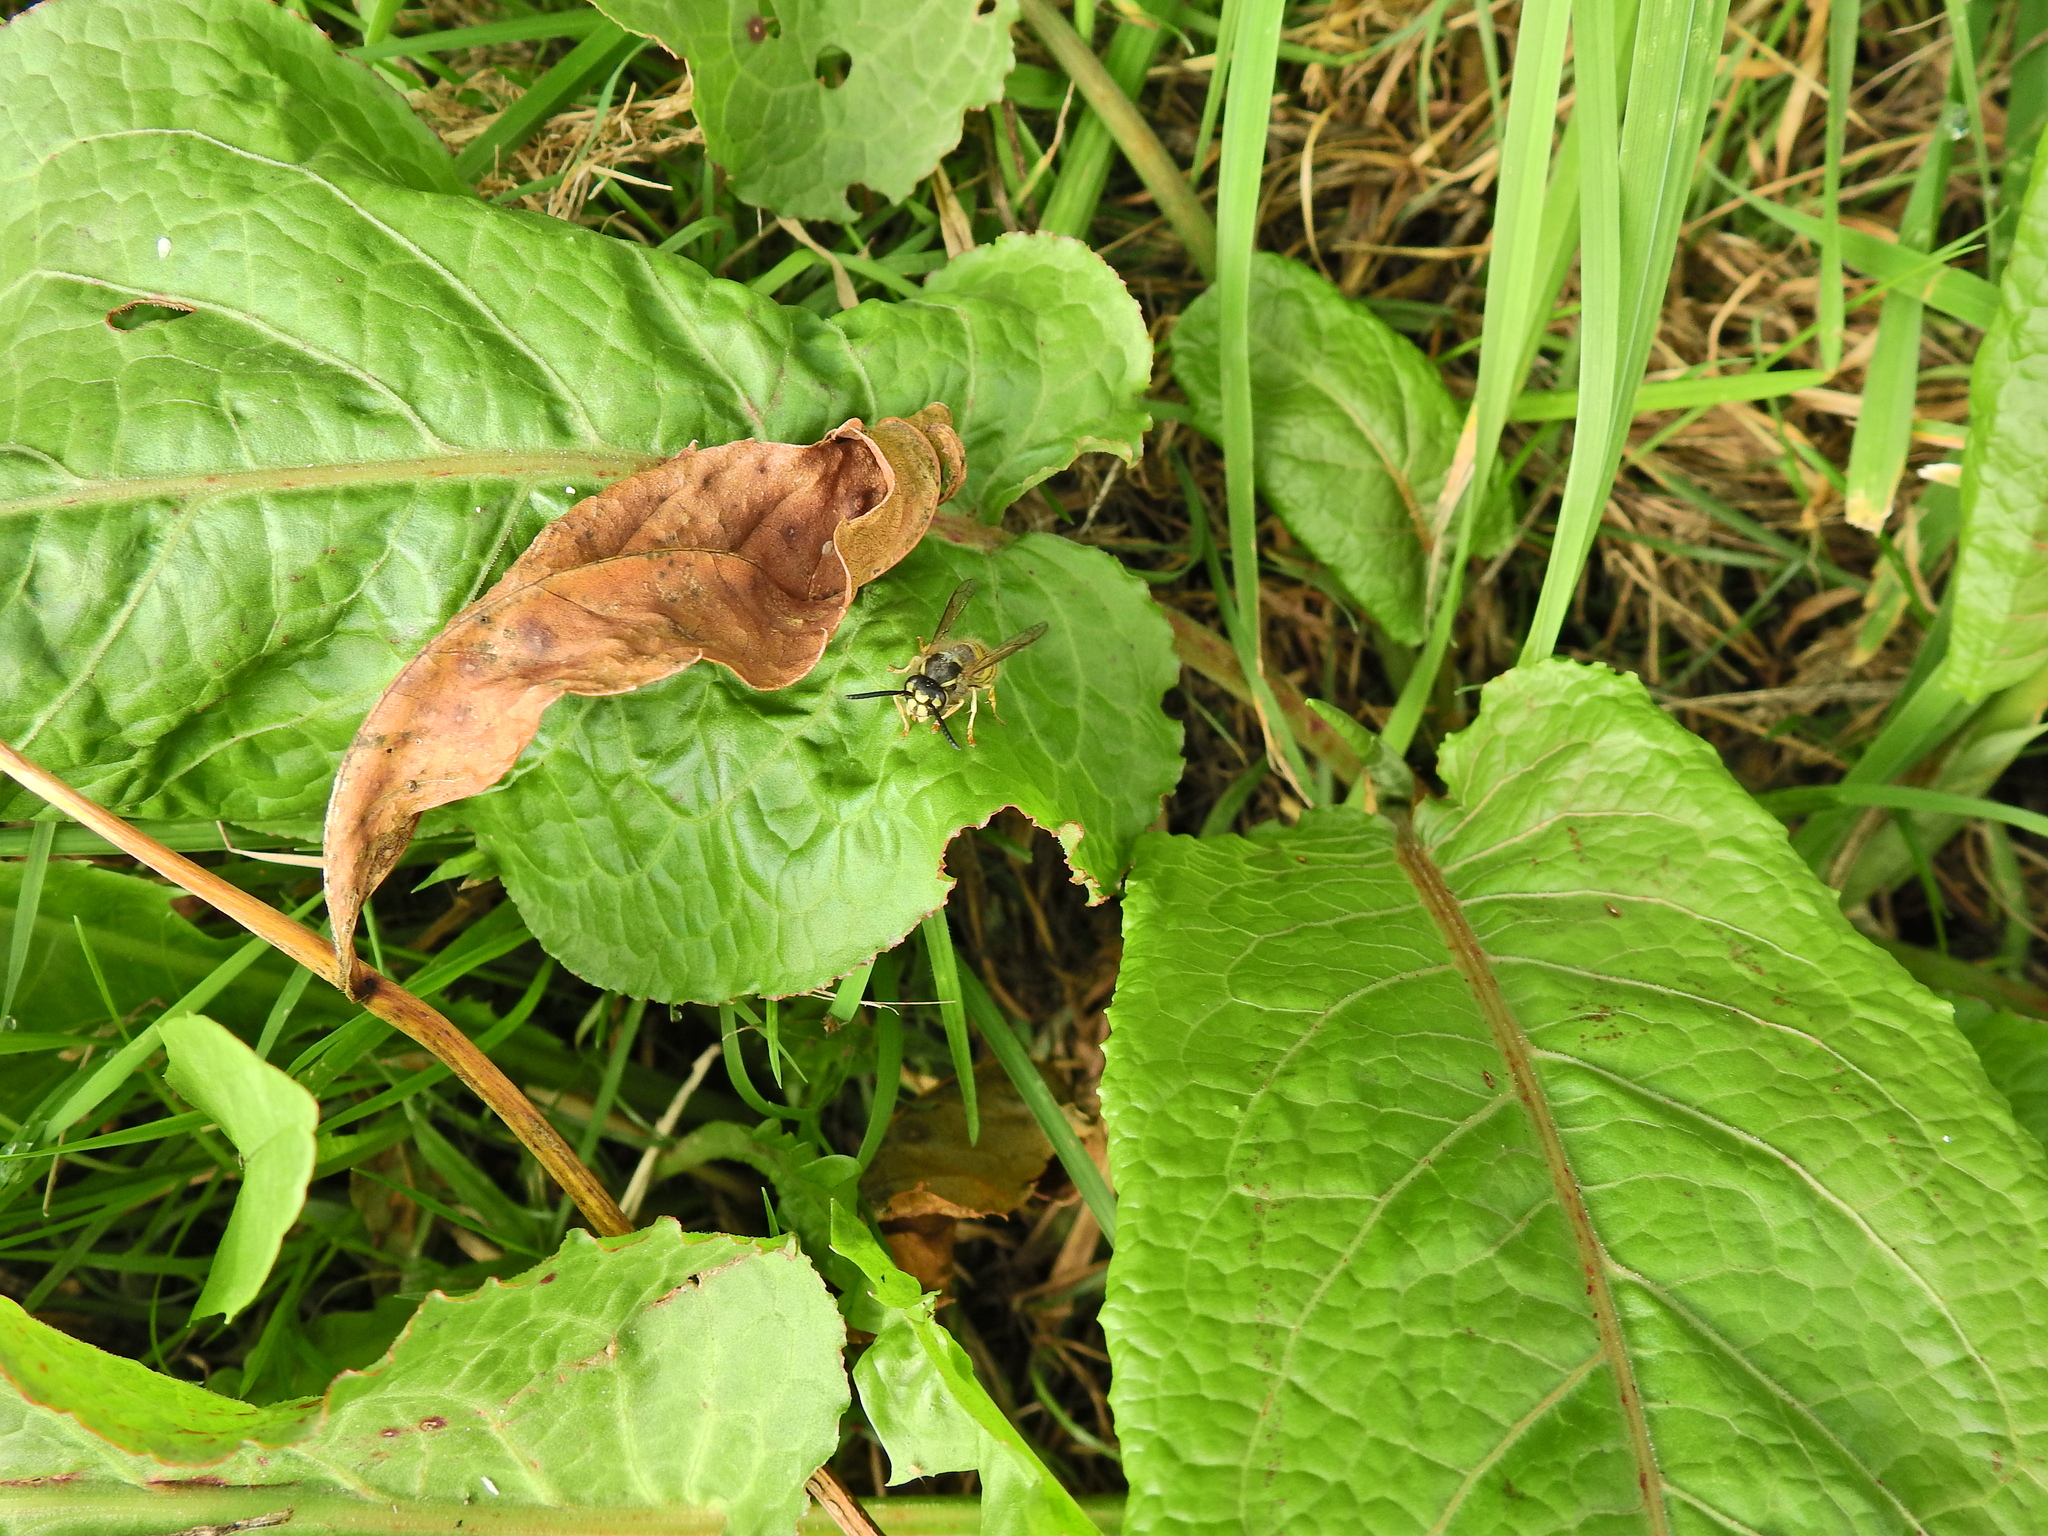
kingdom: Animalia
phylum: Arthropoda
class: Insecta
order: Hymenoptera
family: Vespidae
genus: Vespula
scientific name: Vespula vulgaris
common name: Common wasp
